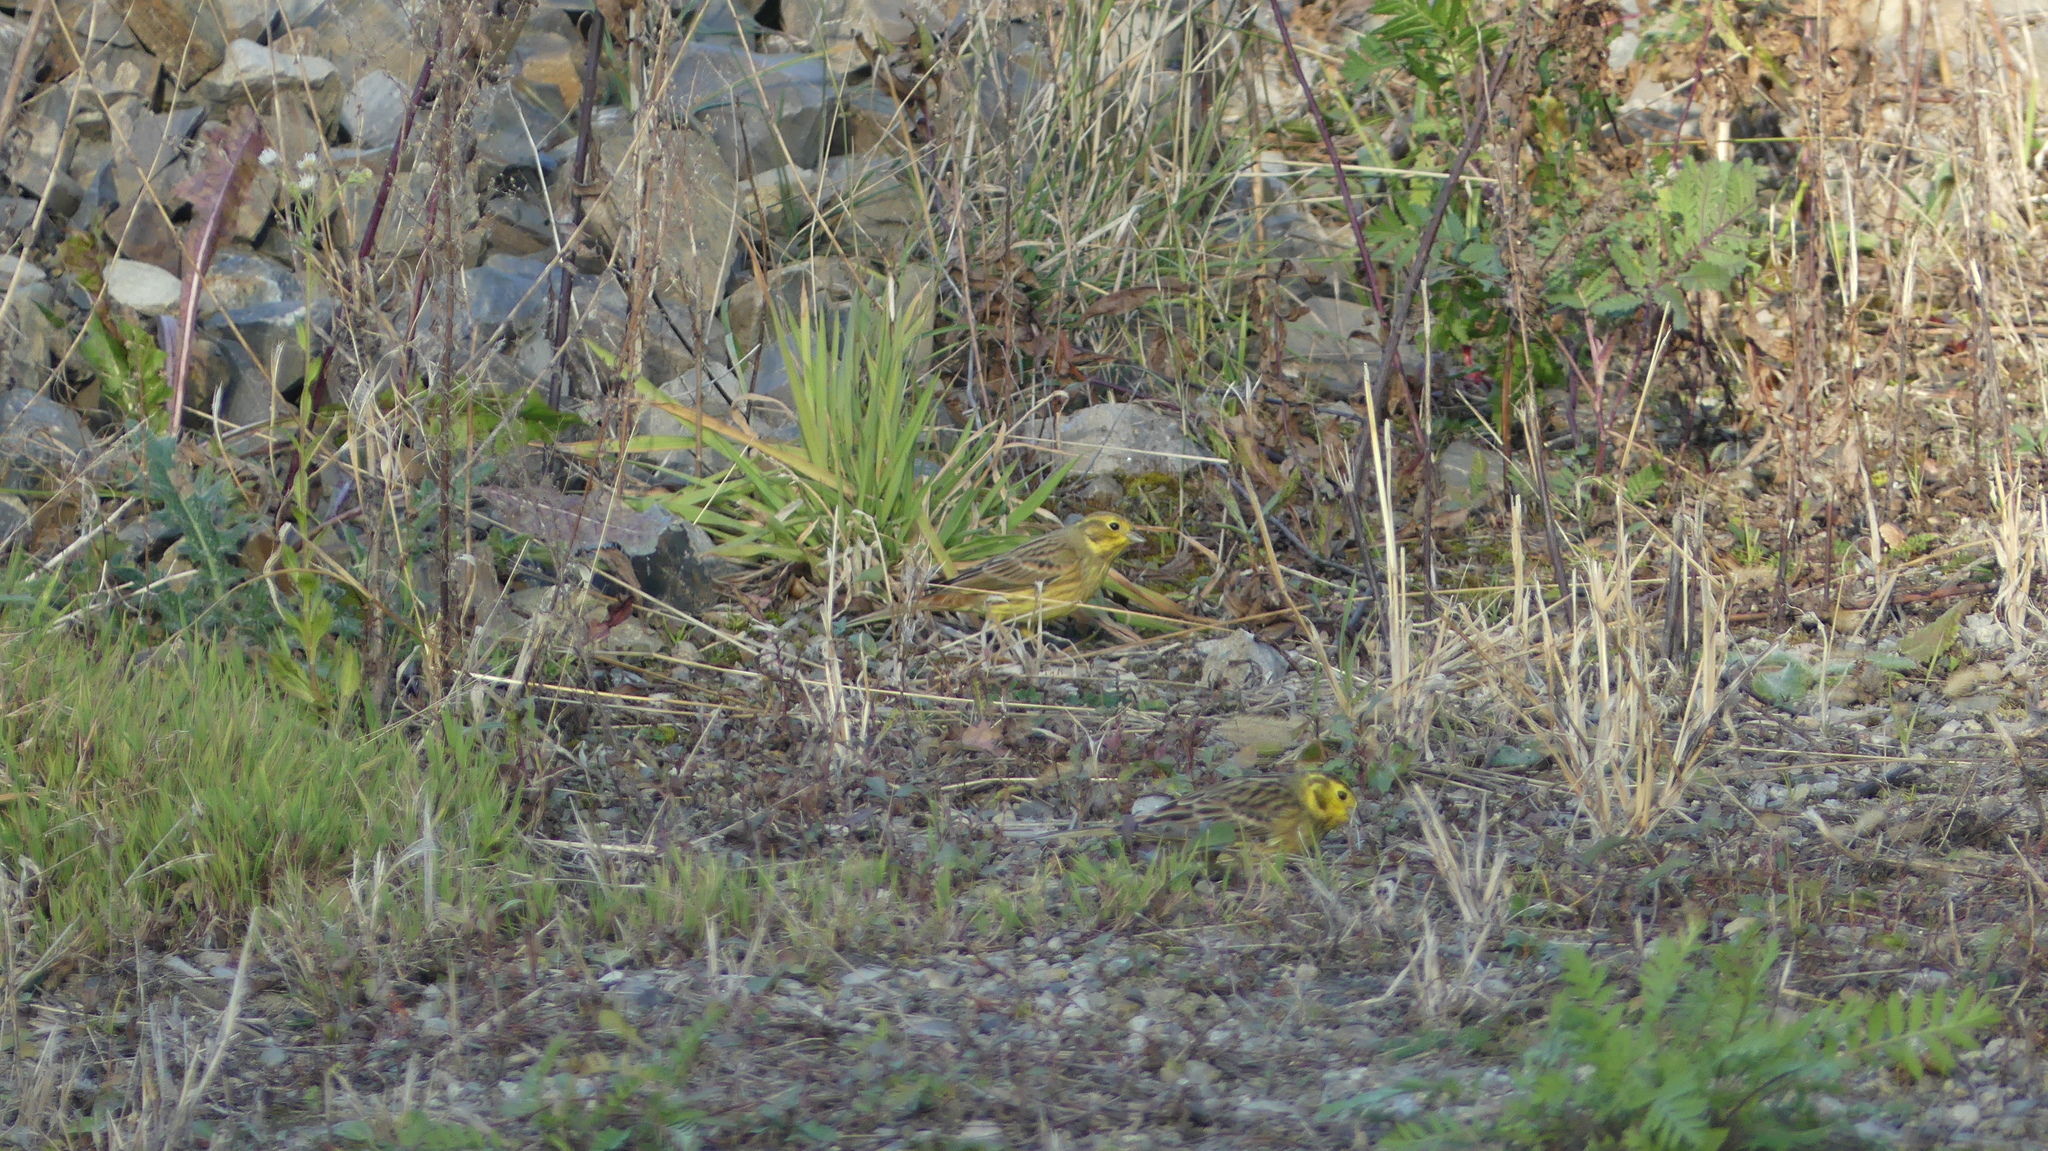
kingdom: Animalia
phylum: Chordata
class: Aves
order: Passeriformes
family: Emberizidae
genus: Emberiza
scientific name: Emberiza citrinella
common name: Yellowhammer
